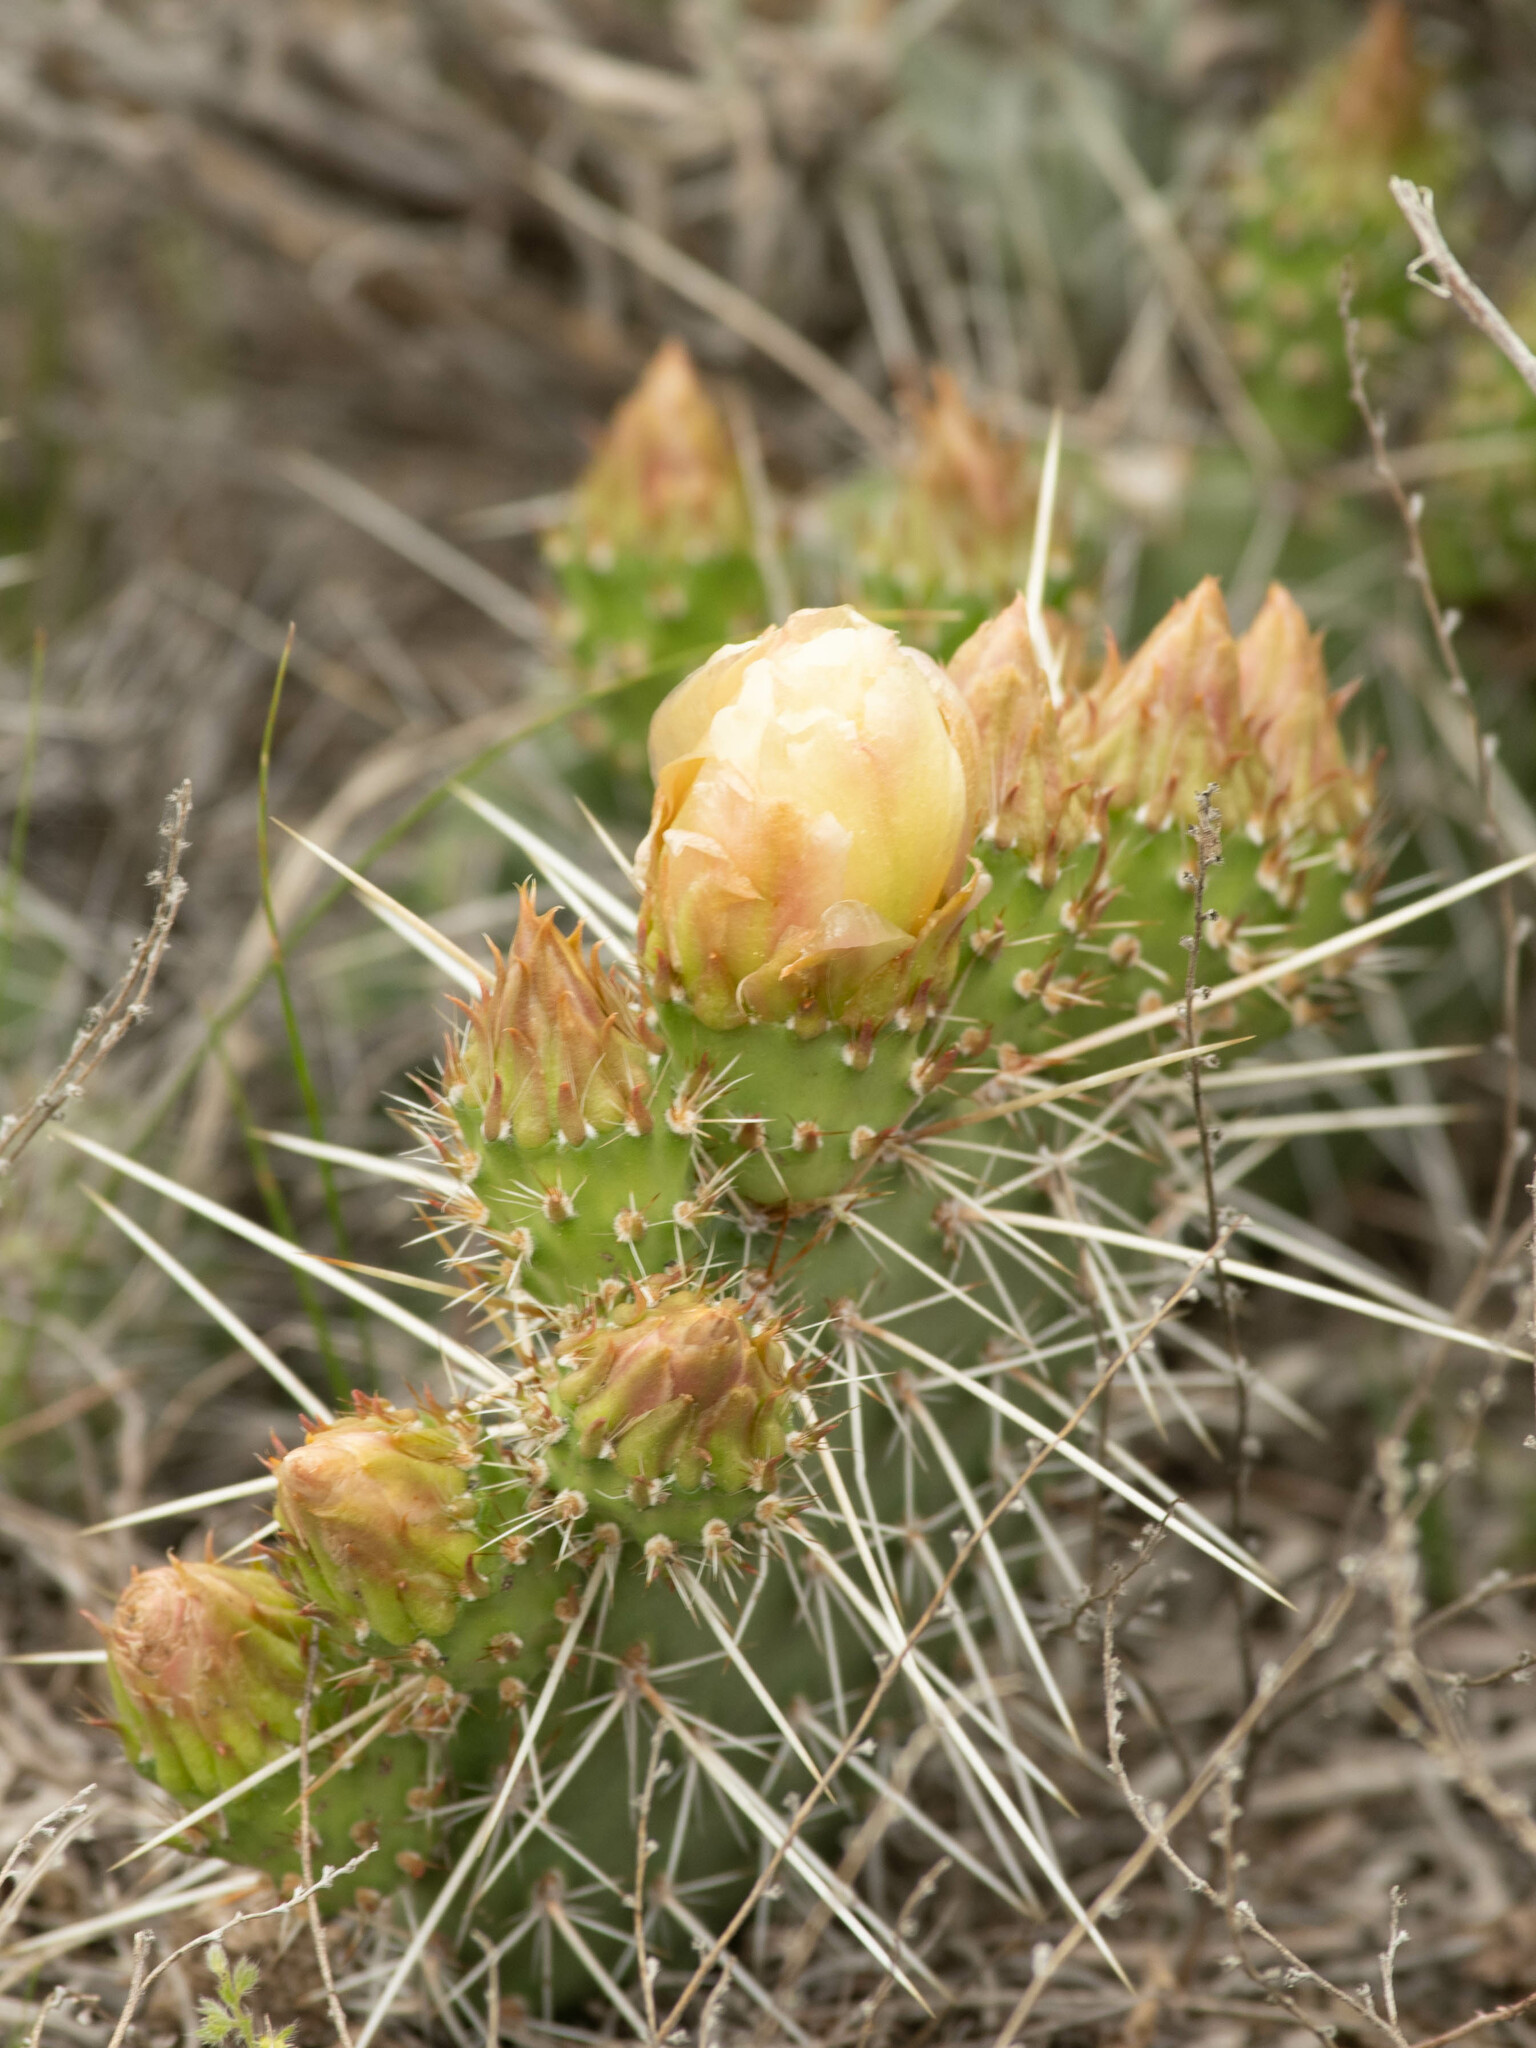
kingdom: Plantae
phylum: Tracheophyta
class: Magnoliopsida
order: Caryophyllales
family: Cactaceae
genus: Opuntia
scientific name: Opuntia polyacantha
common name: Plains prickly-pear
